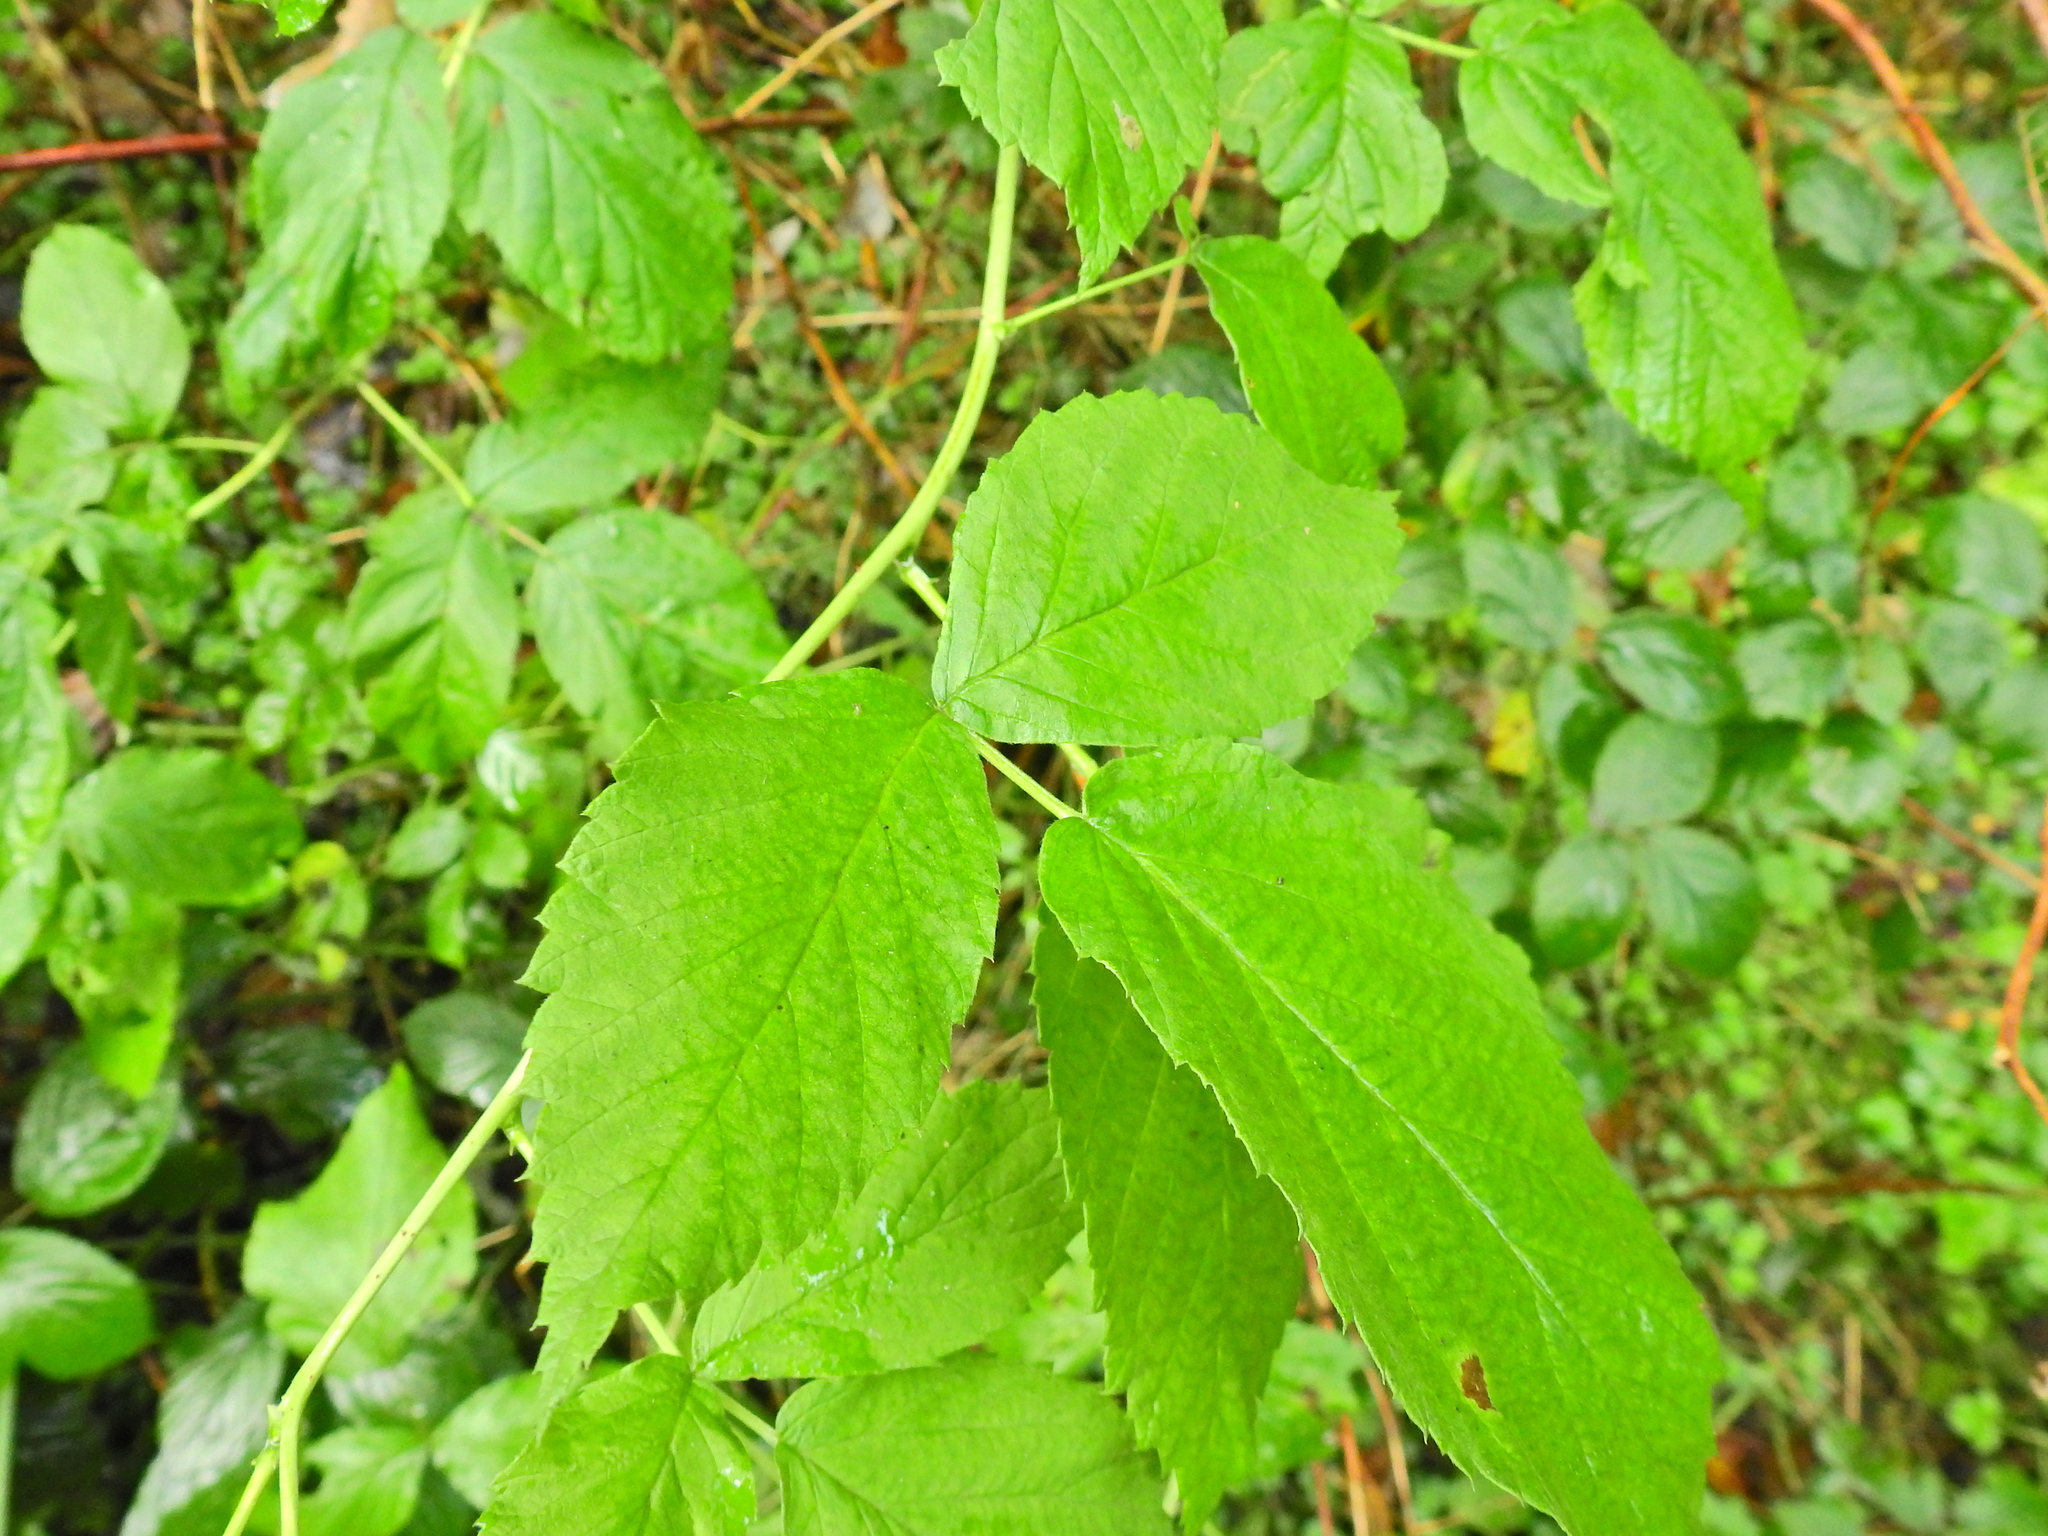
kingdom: Plantae
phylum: Tracheophyta
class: Magnoliopsida
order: Rosales
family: Rosaceae
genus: Rubus
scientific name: Rubus idaeus
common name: Raspberry
